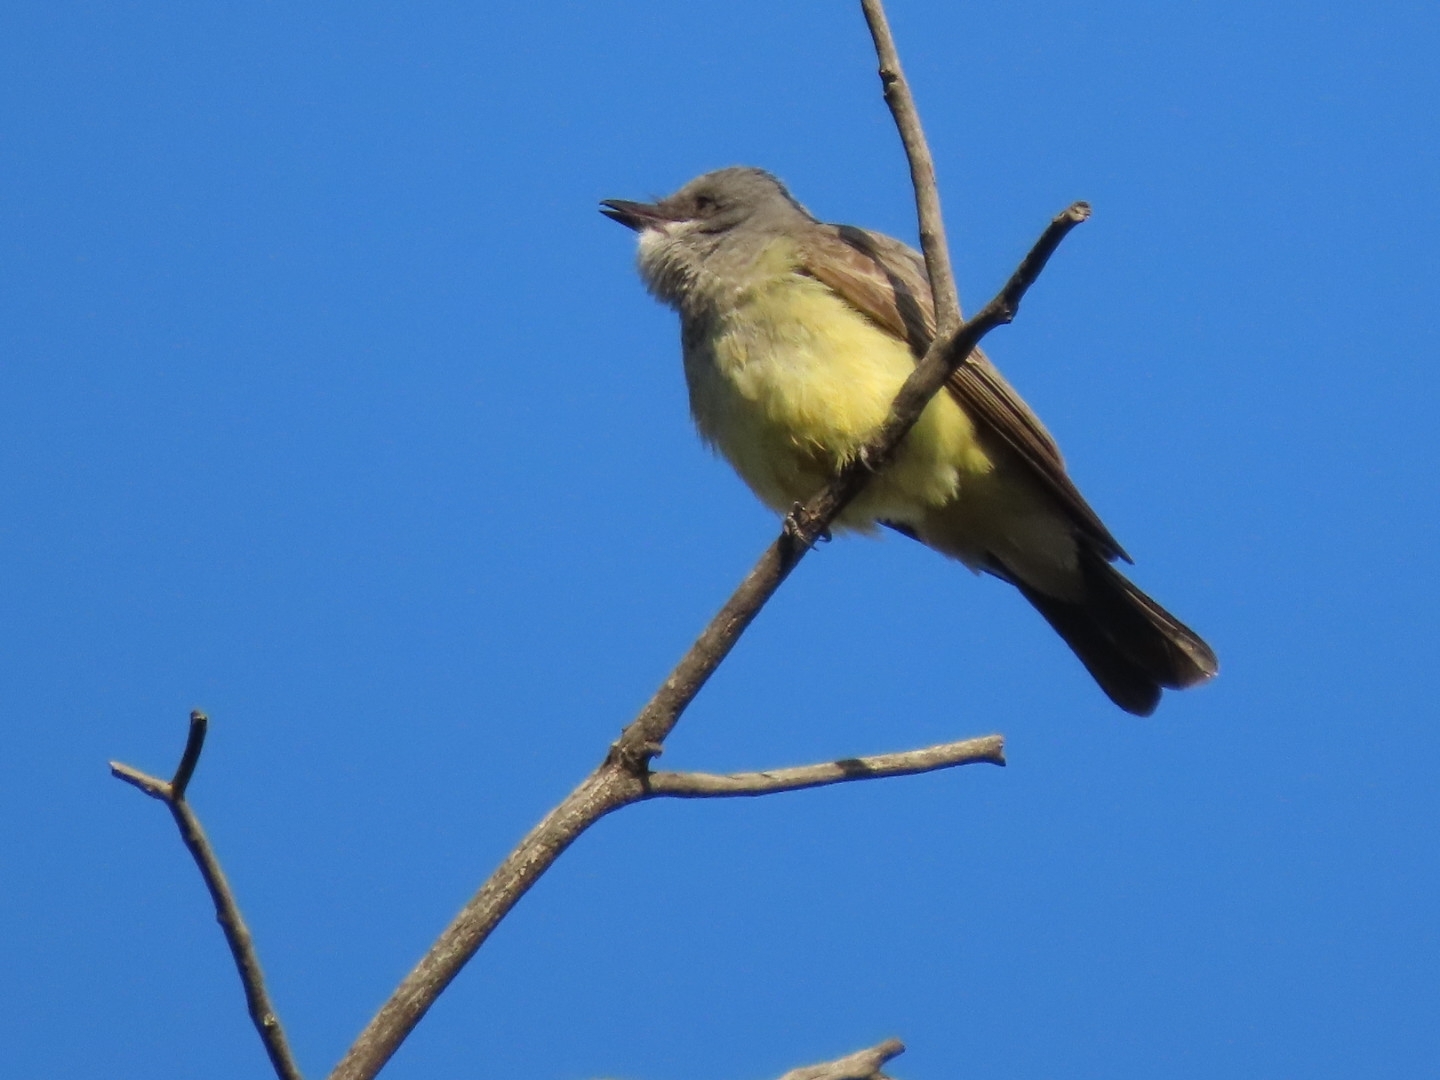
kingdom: Animalia
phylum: Chordata
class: Aves
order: Passeriformes
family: Tyrannidae
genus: Tyrannus
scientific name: Tyrannus vociferans
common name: Cassin's kingbird
